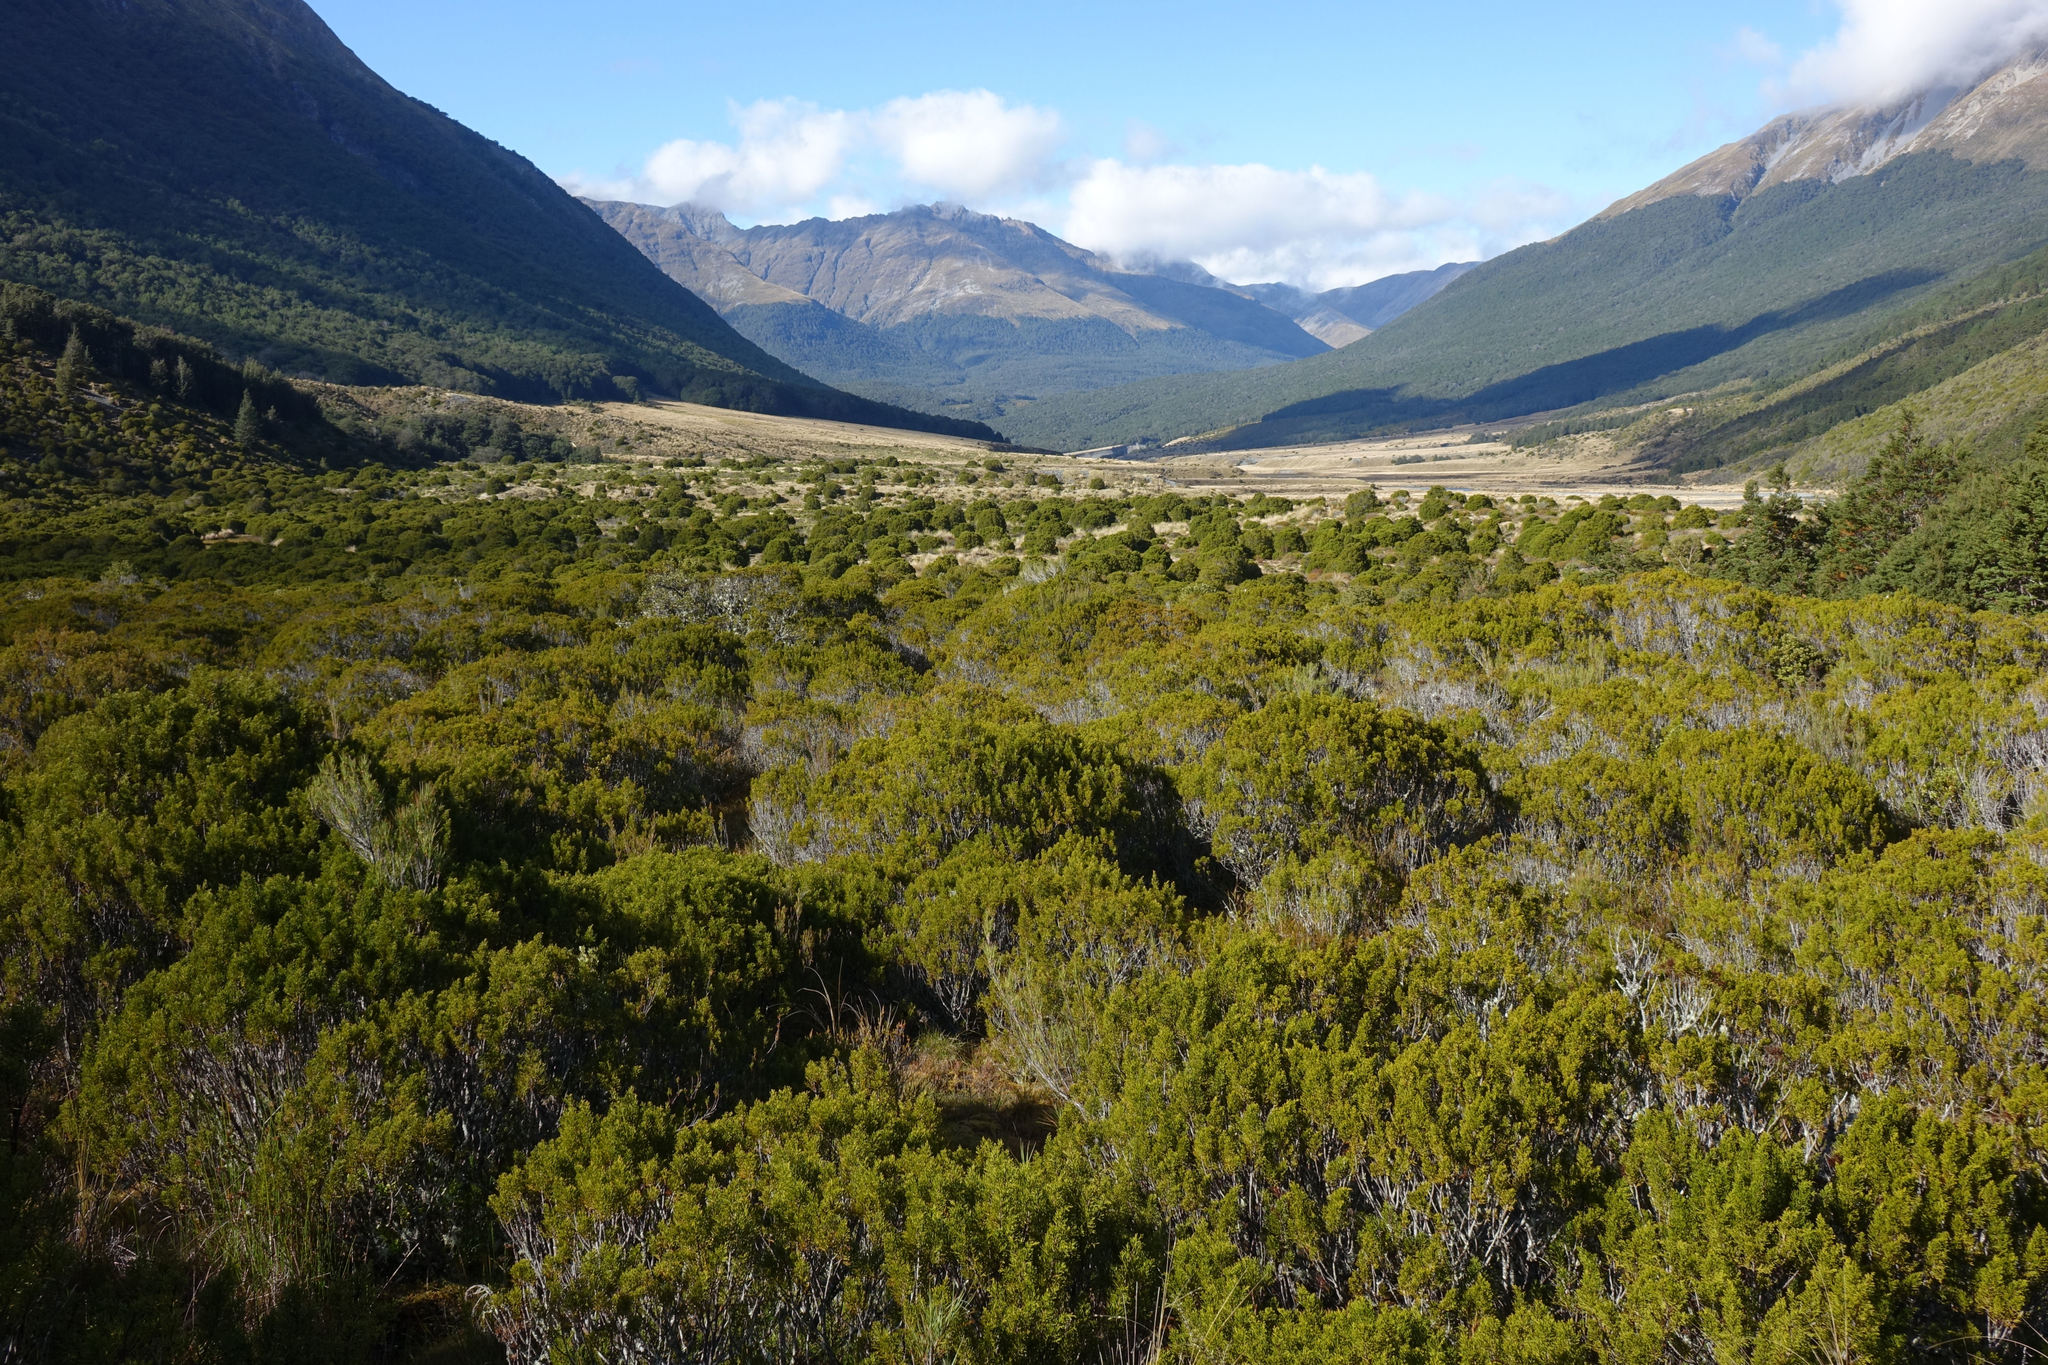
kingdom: Plantae
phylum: Tracheophyta
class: Pinopsida
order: Pinales
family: Podocarpaceae
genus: Halocarpus
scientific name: Halocarpus bidwillii
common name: Bog pine
